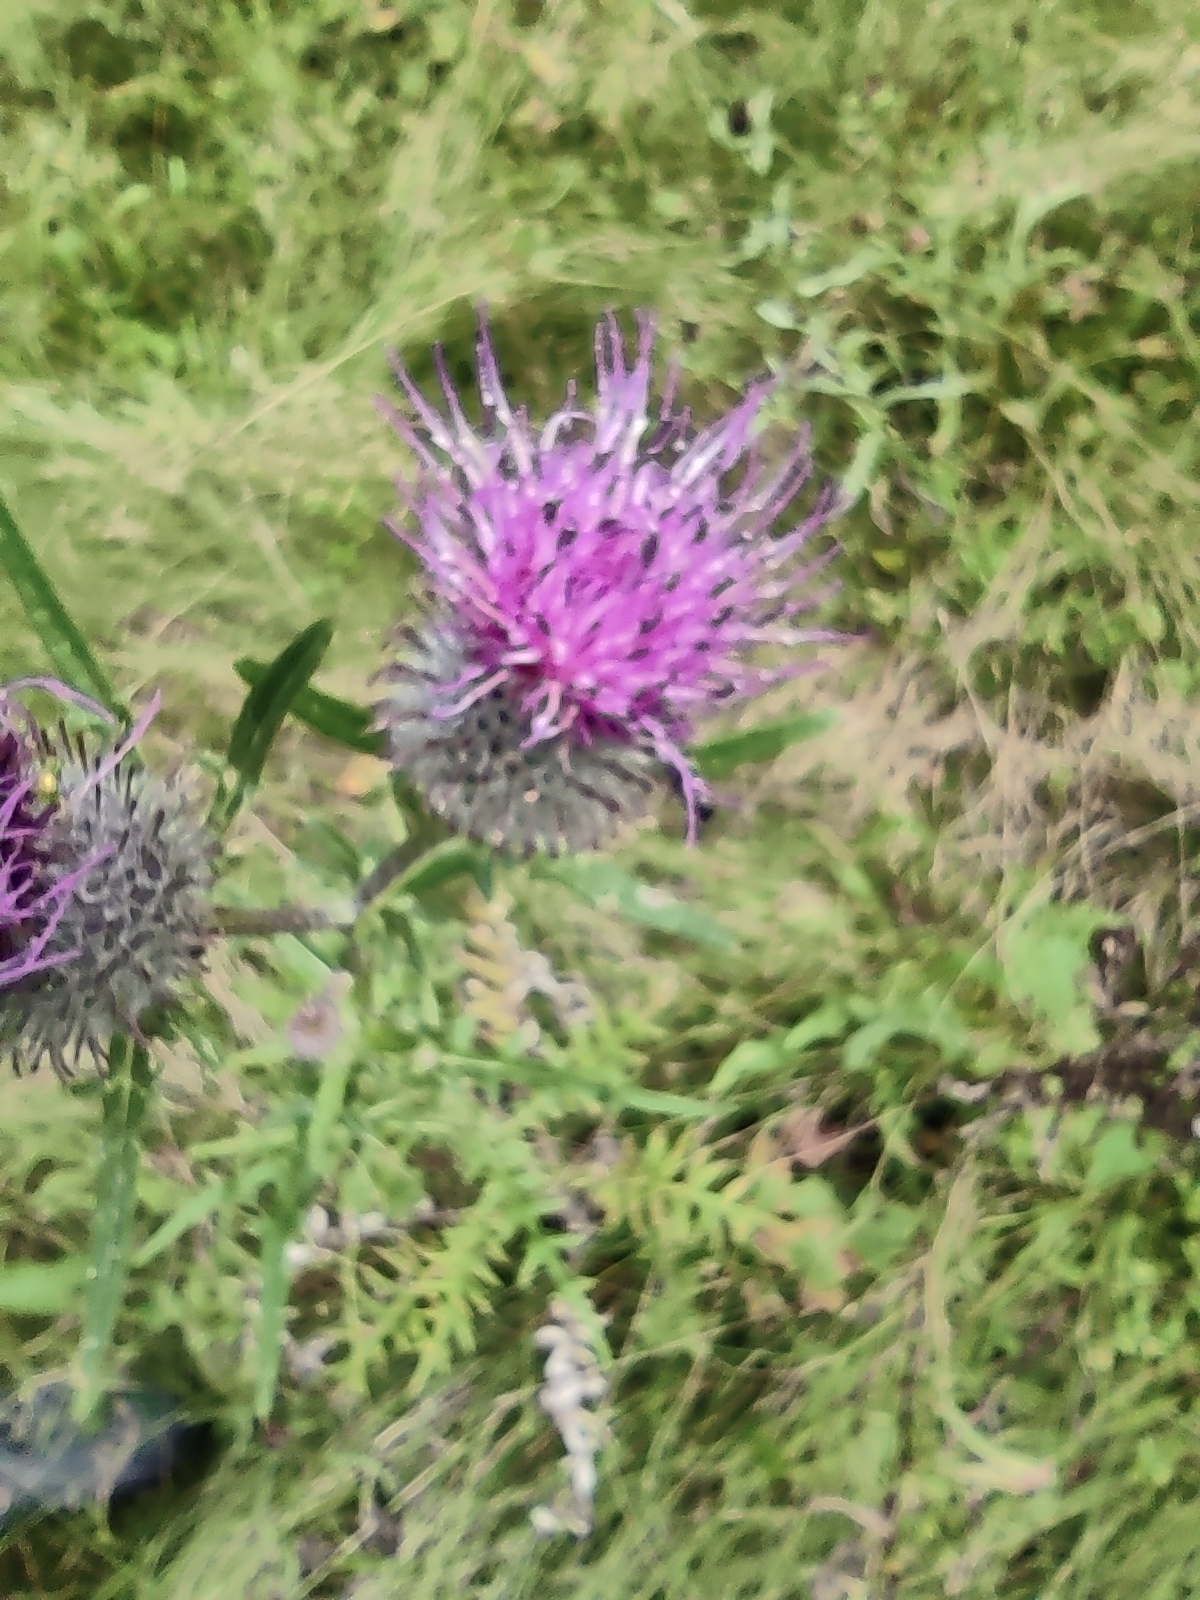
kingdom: Plantae
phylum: Tracheophyta
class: Magnoliopsida
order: Asterales
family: Asteraceae
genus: Lophiolepis
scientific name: Lophiolepis decussata
